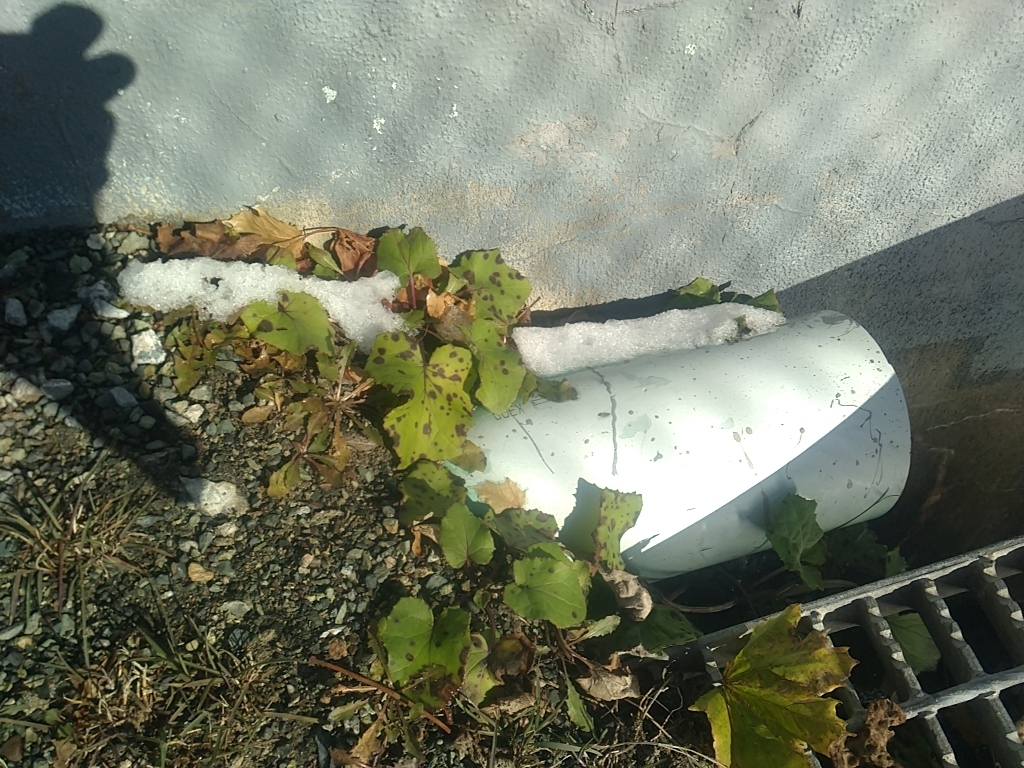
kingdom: Plantae
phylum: Tracheophyta
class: Magnoliopsida
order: Asterales
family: Asteraceae
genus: Tussilago
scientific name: Tussilago farfara
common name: Coltsfoot
